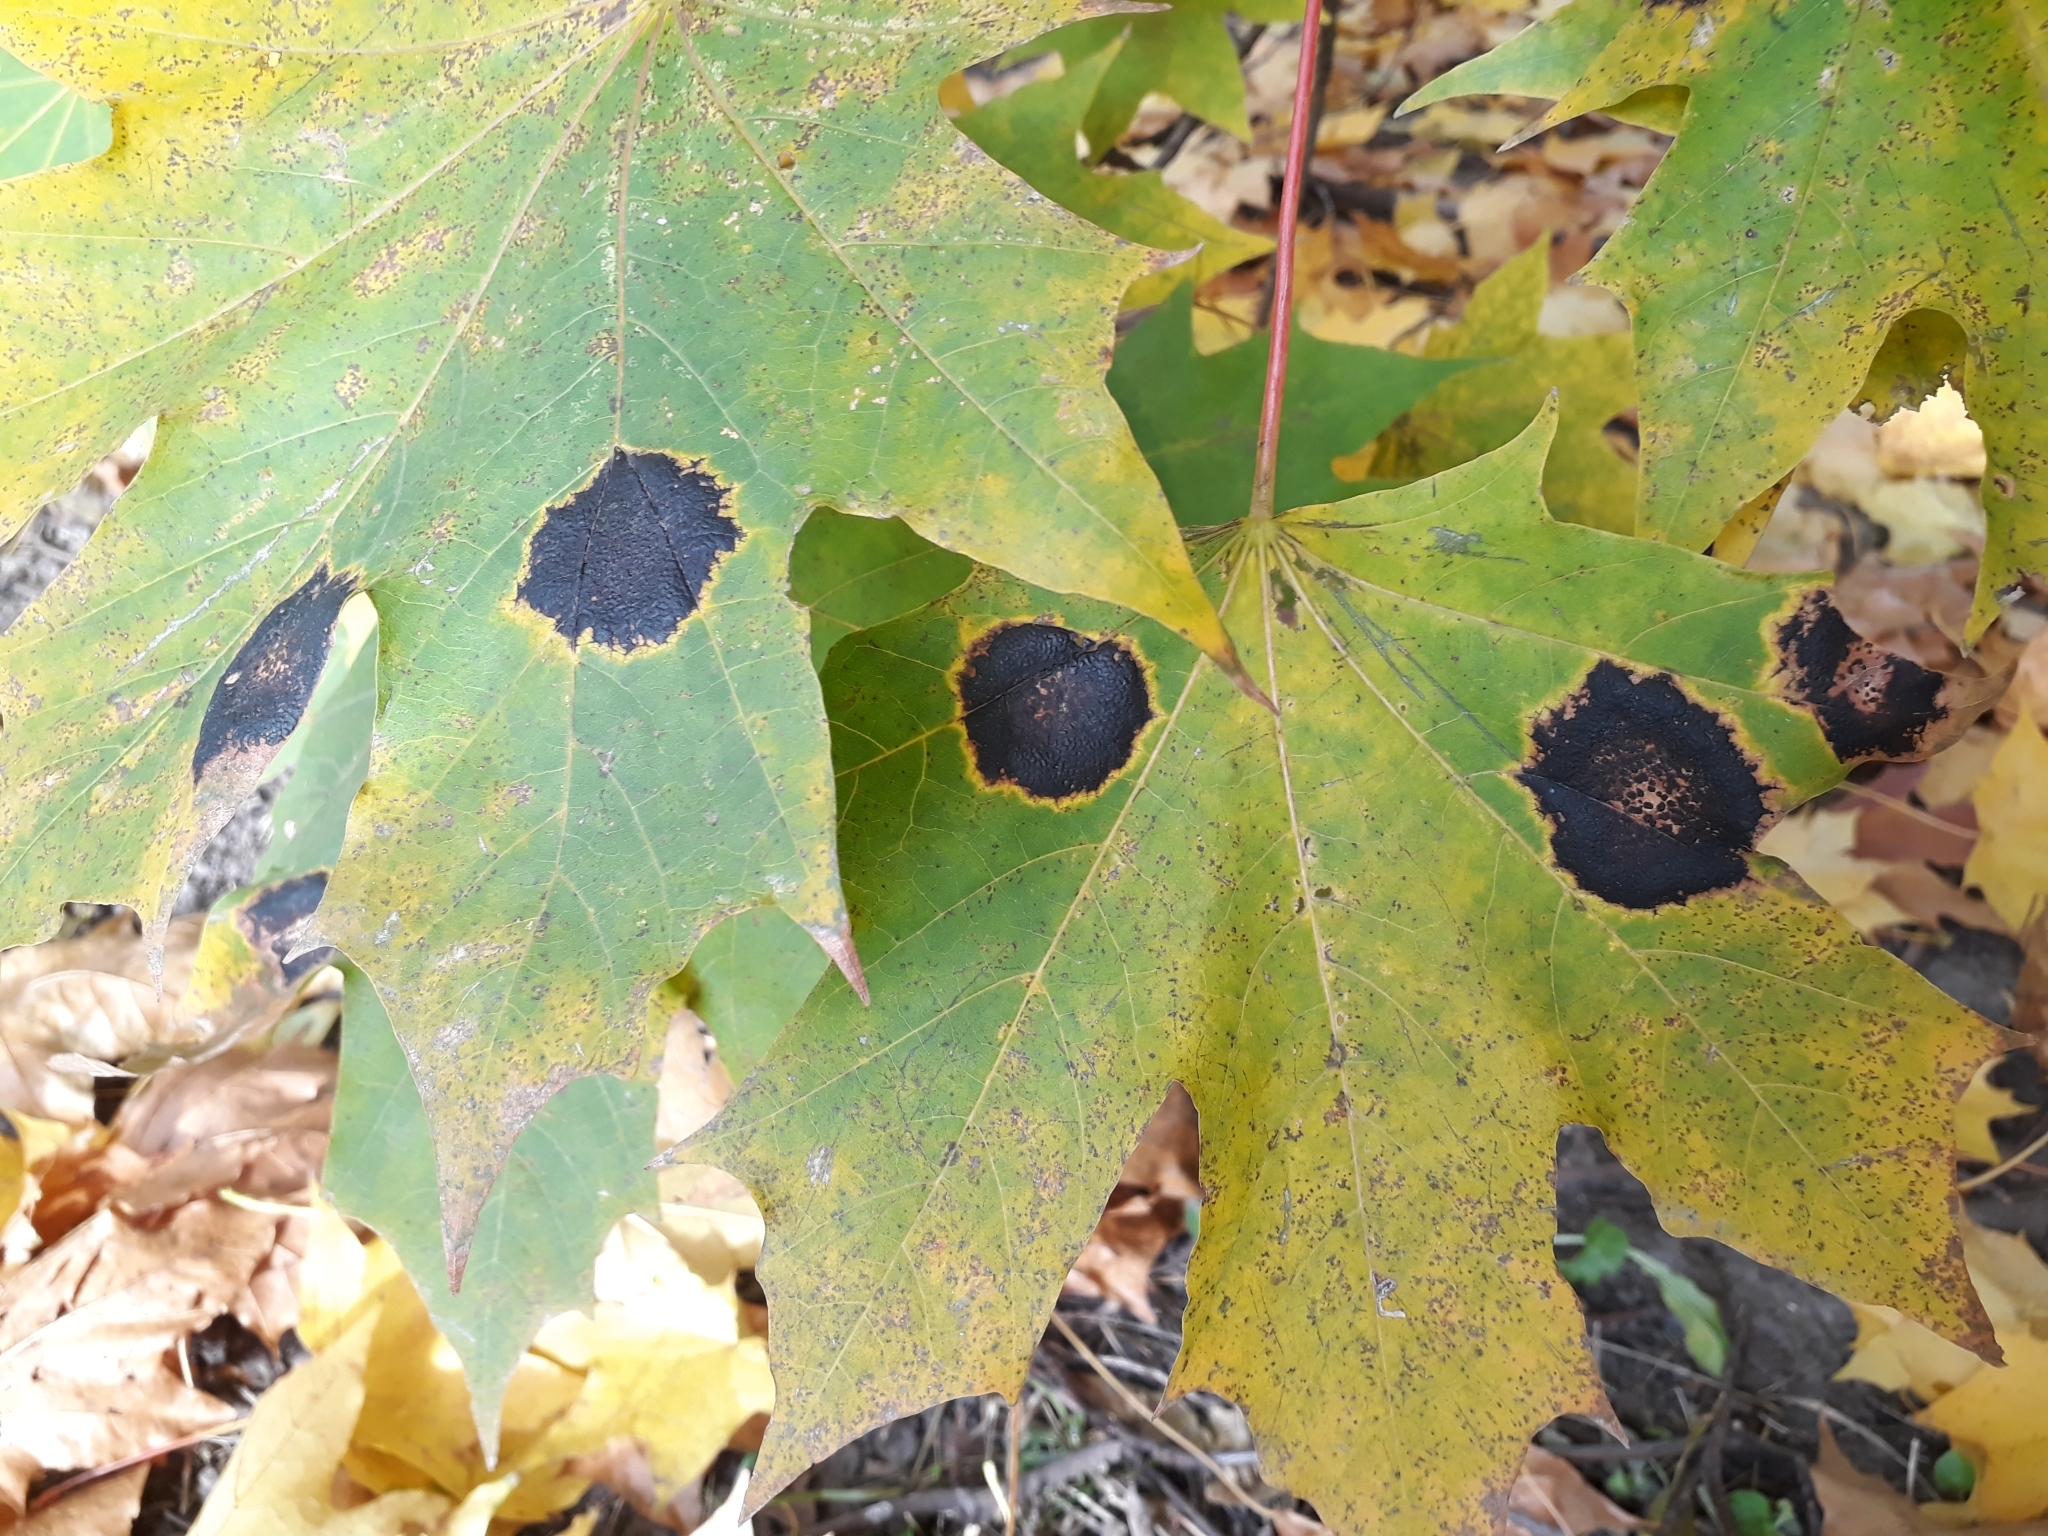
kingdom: Fungi
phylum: Ascomycota
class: Leotiomycetes
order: Rhytismatales
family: Rhytismataceae
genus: Rhytisma
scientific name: Rhytisma acerinum
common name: European tar spot
